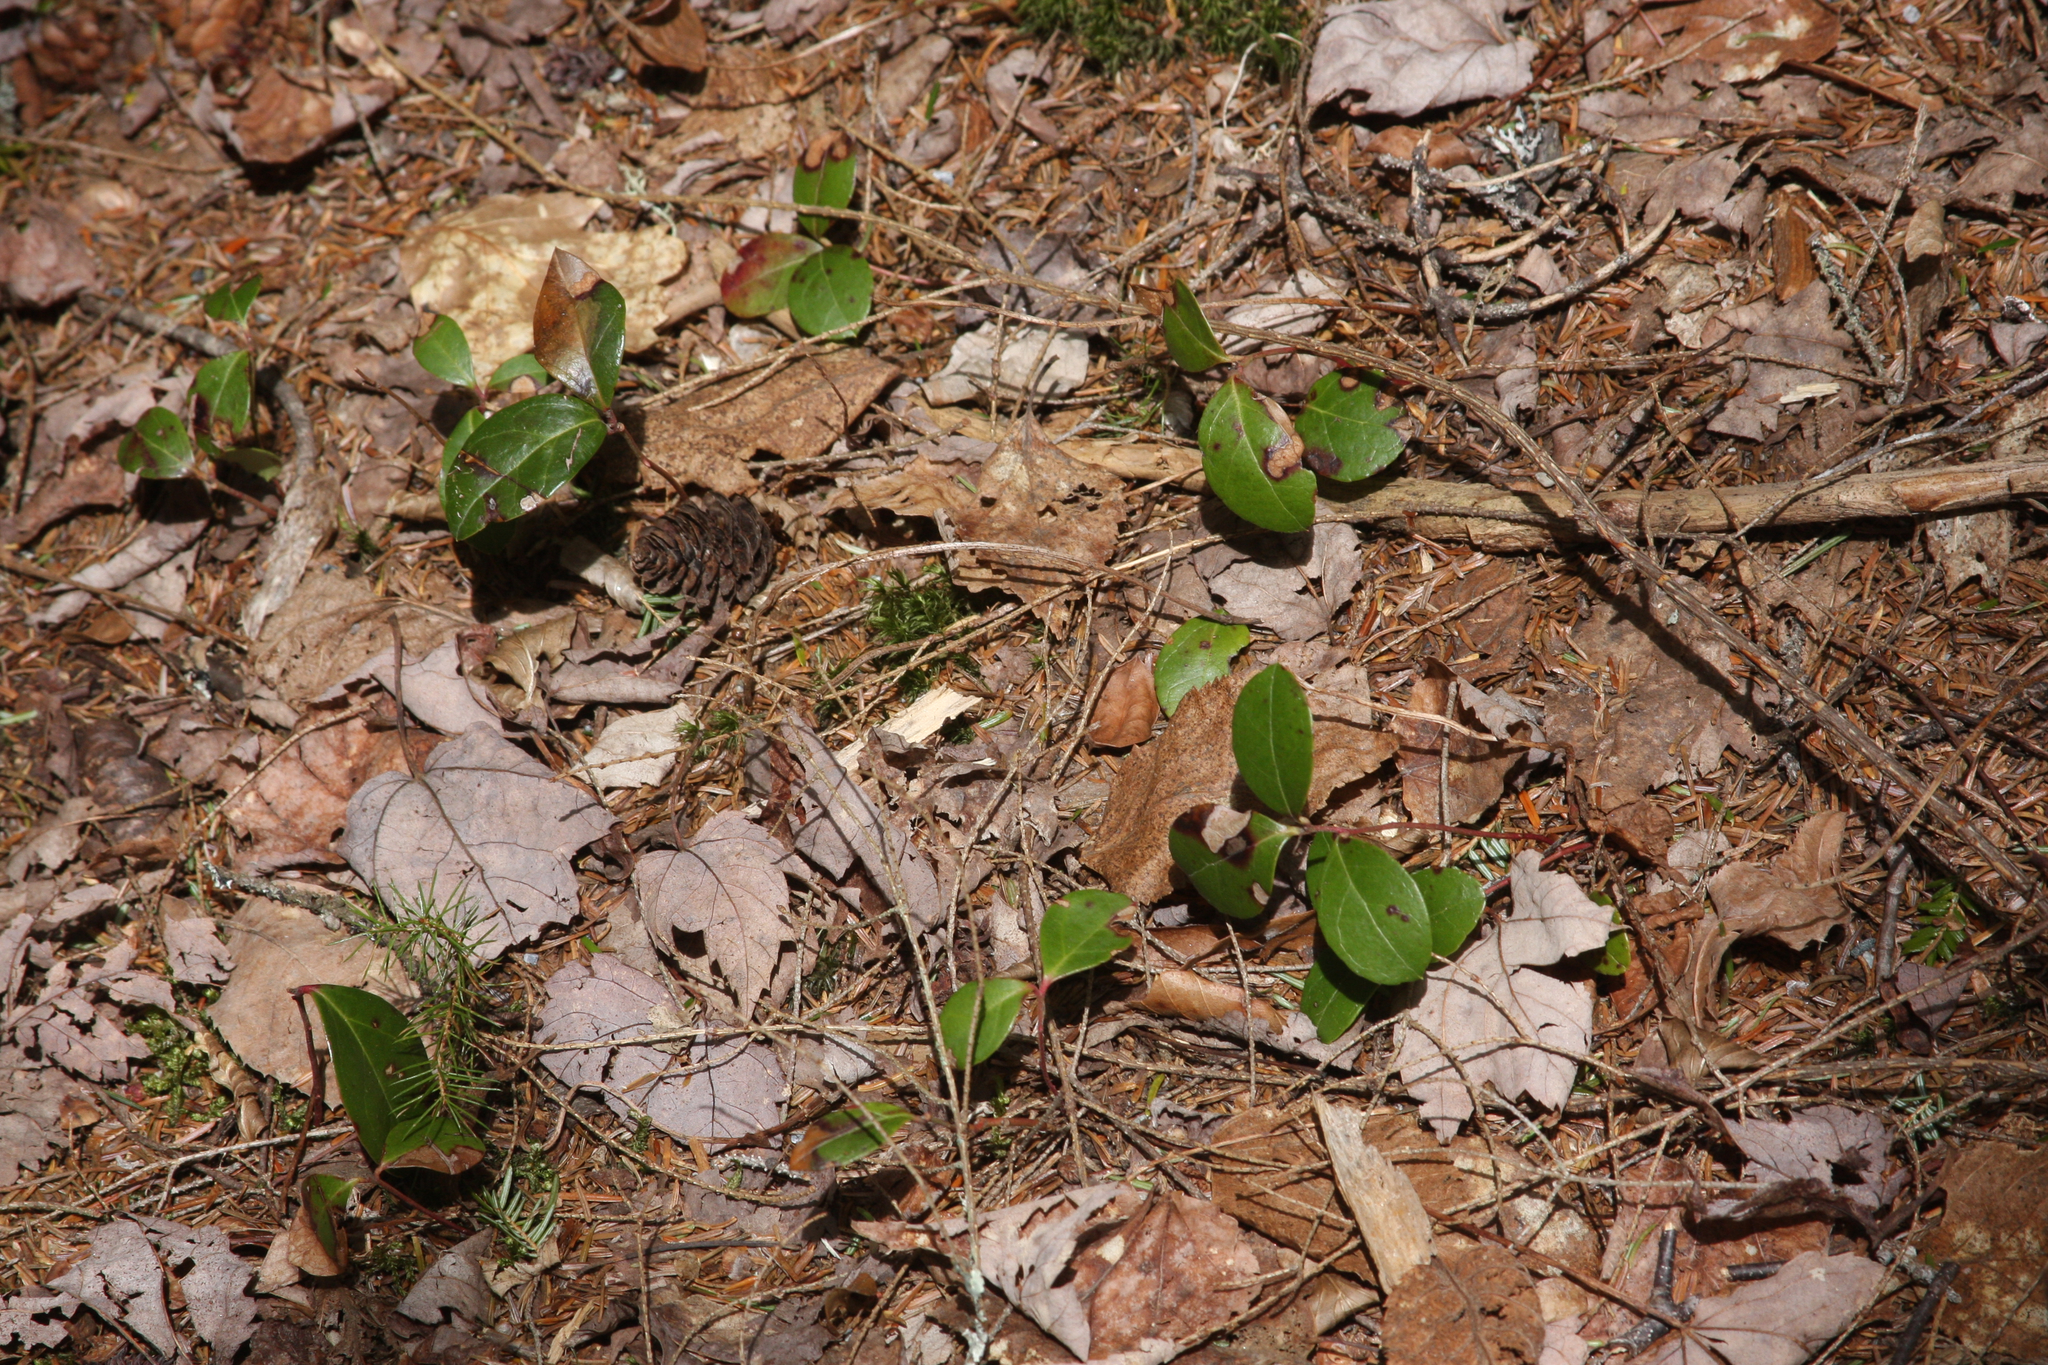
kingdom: Plantae
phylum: Tracheophyta
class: Magnoliopsida
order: Ericales
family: Ericaceae
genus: Gaultheria
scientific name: Gaultheria procumbens
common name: Checkerberry
